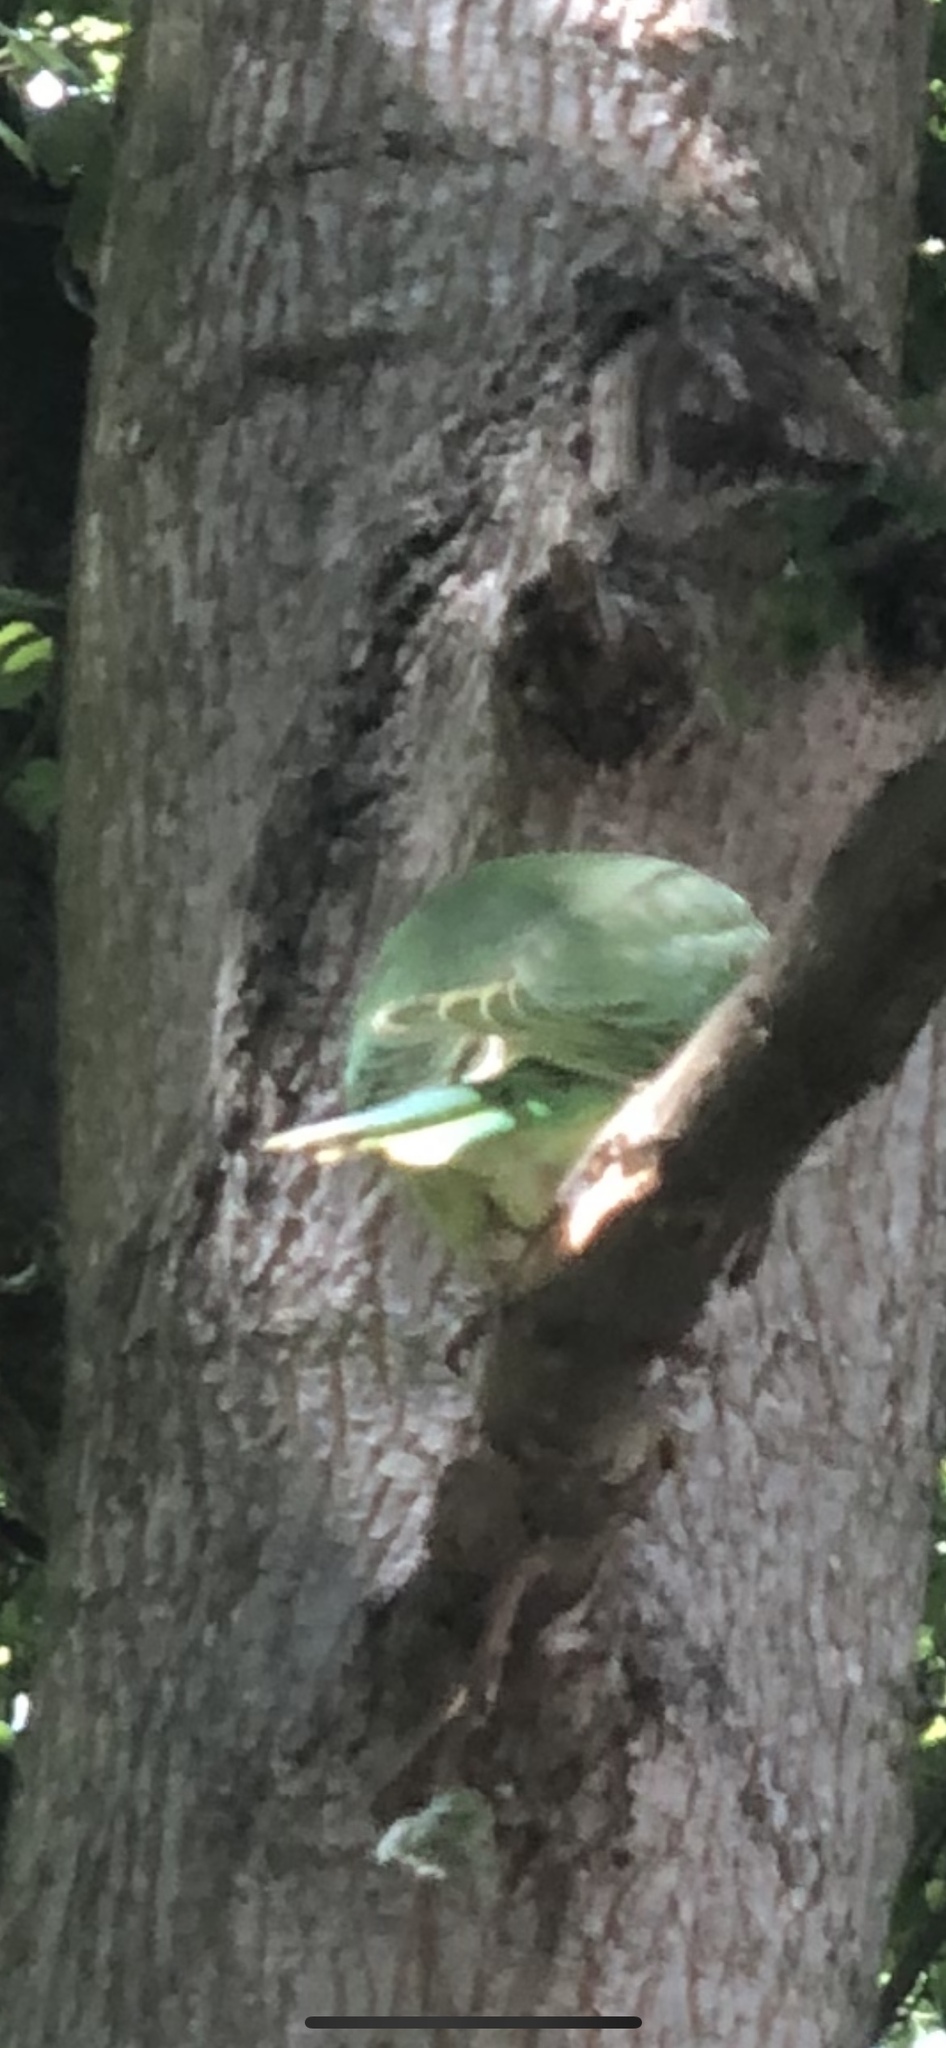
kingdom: Animalia
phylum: Chordata
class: Aves
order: Psittaciformes
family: Psittacidae
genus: Psittacula
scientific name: Psittacula eupatria
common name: Alexandrine parakeet
